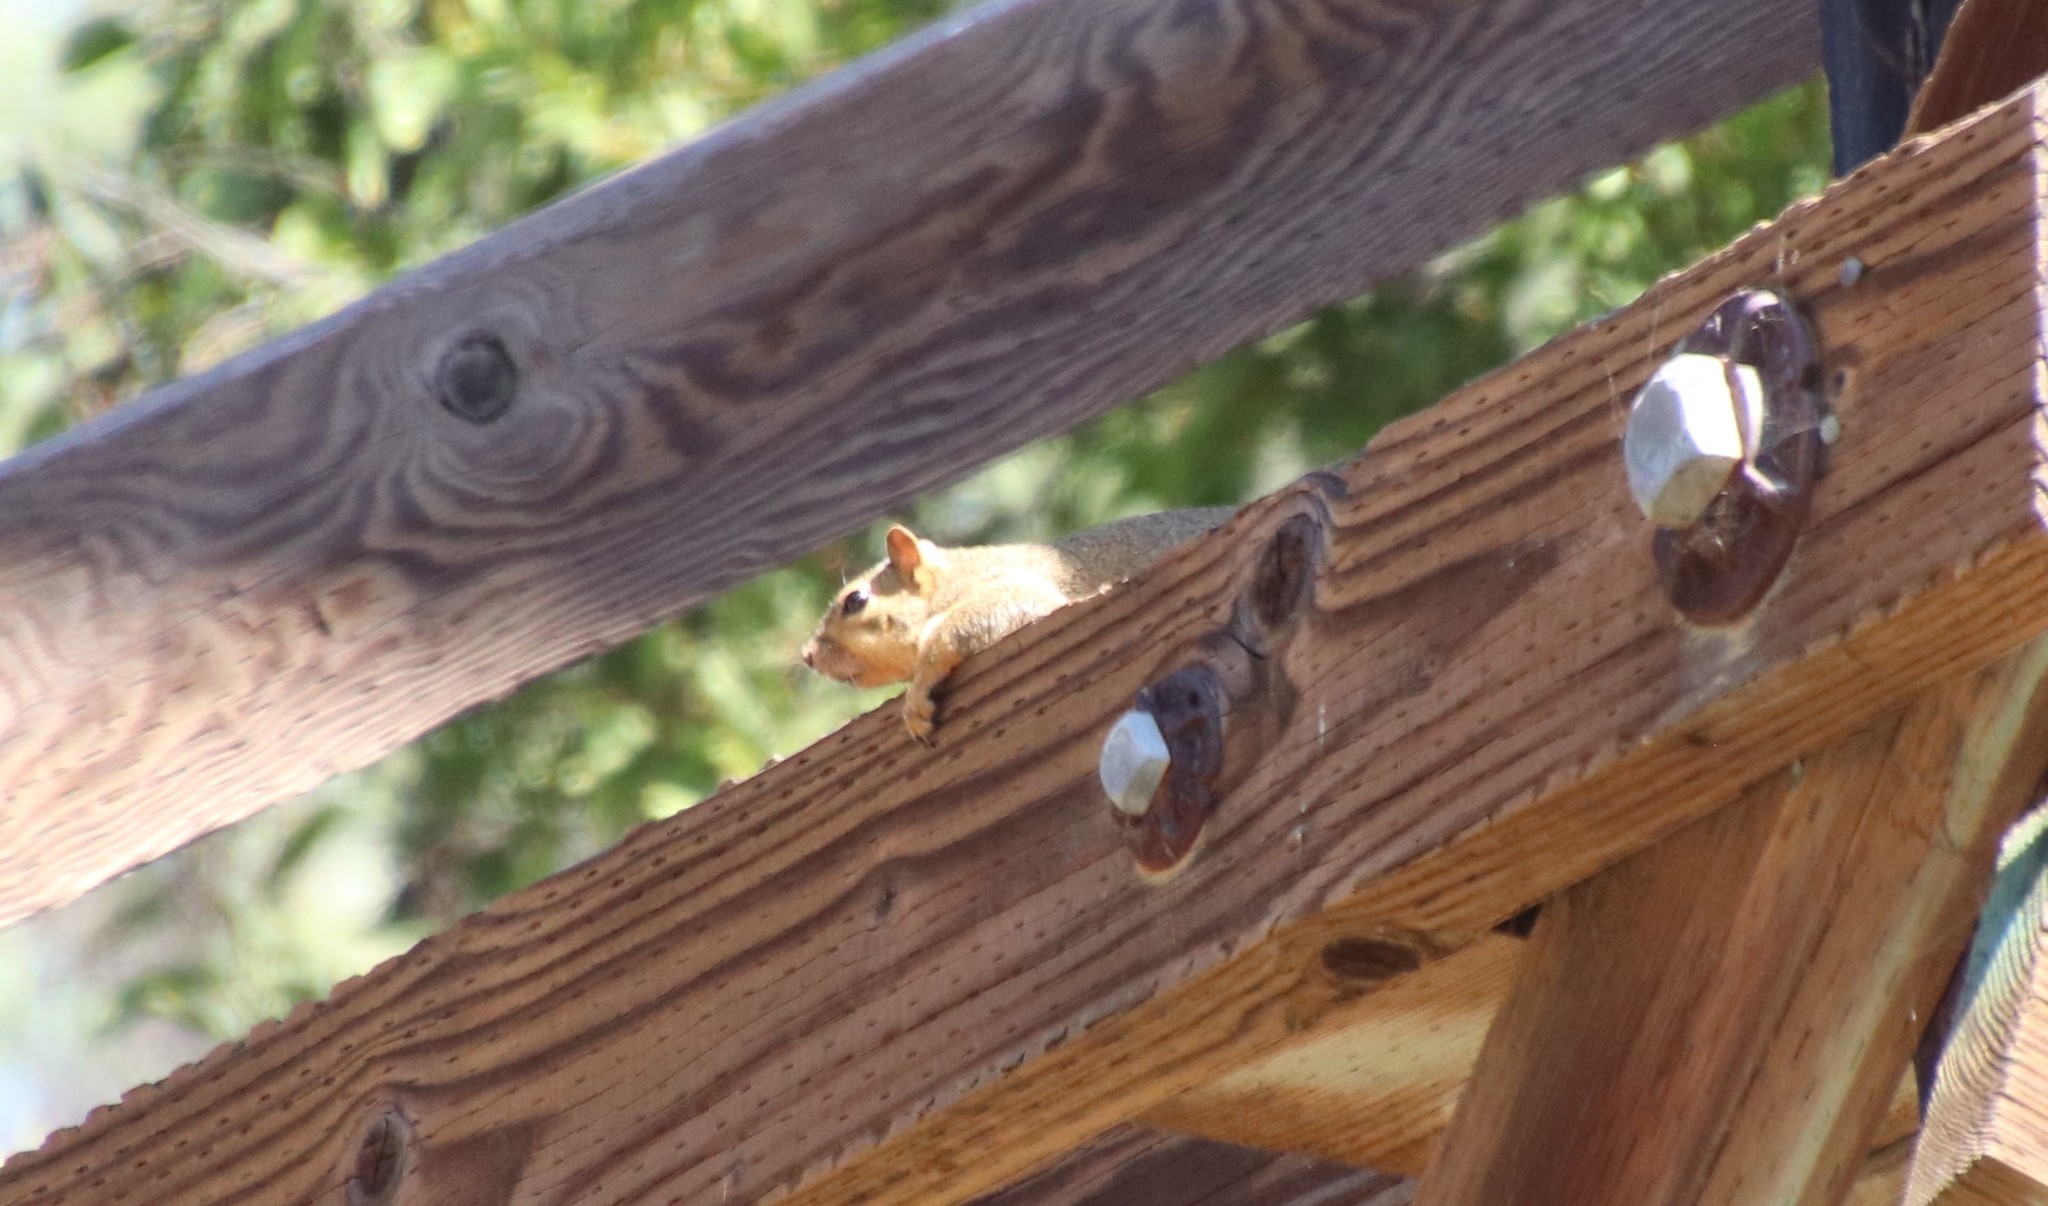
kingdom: Animalia
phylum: Chordata
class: Mammalia
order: Rodentia
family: Sciuridae
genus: Sciurus
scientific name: Sciurus niger
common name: Fox squirrel
